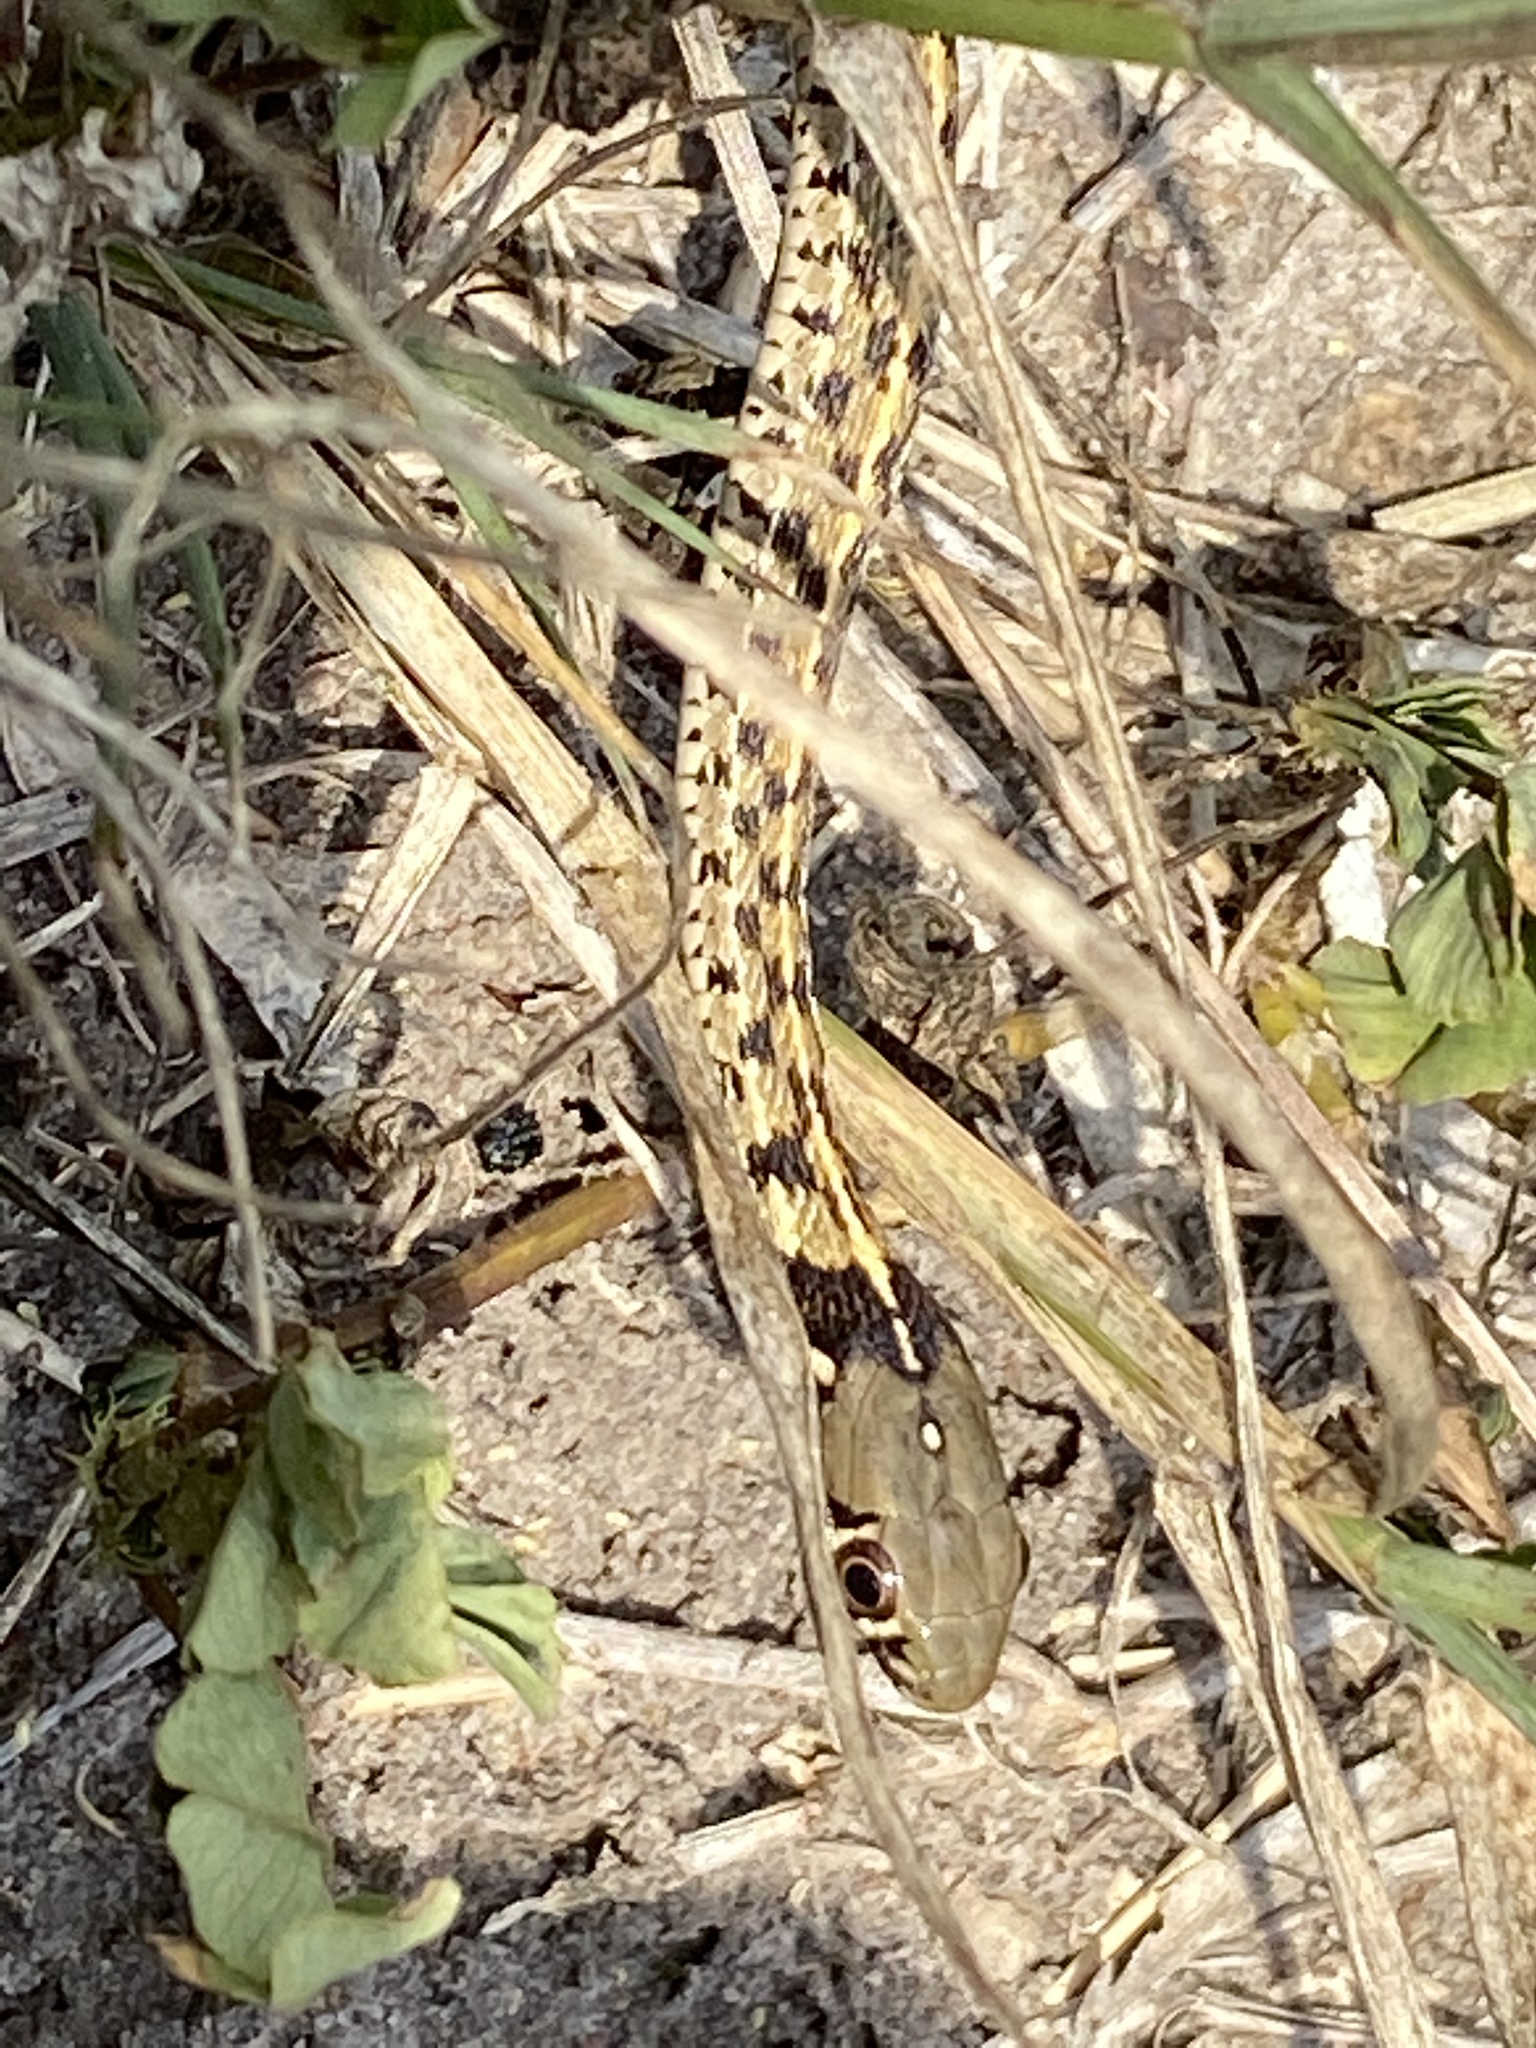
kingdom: Animalia
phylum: Chordata
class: Squamata
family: Colubridae
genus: Thamnophis
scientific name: Thamnophis marcianus
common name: Checkered garter snake
